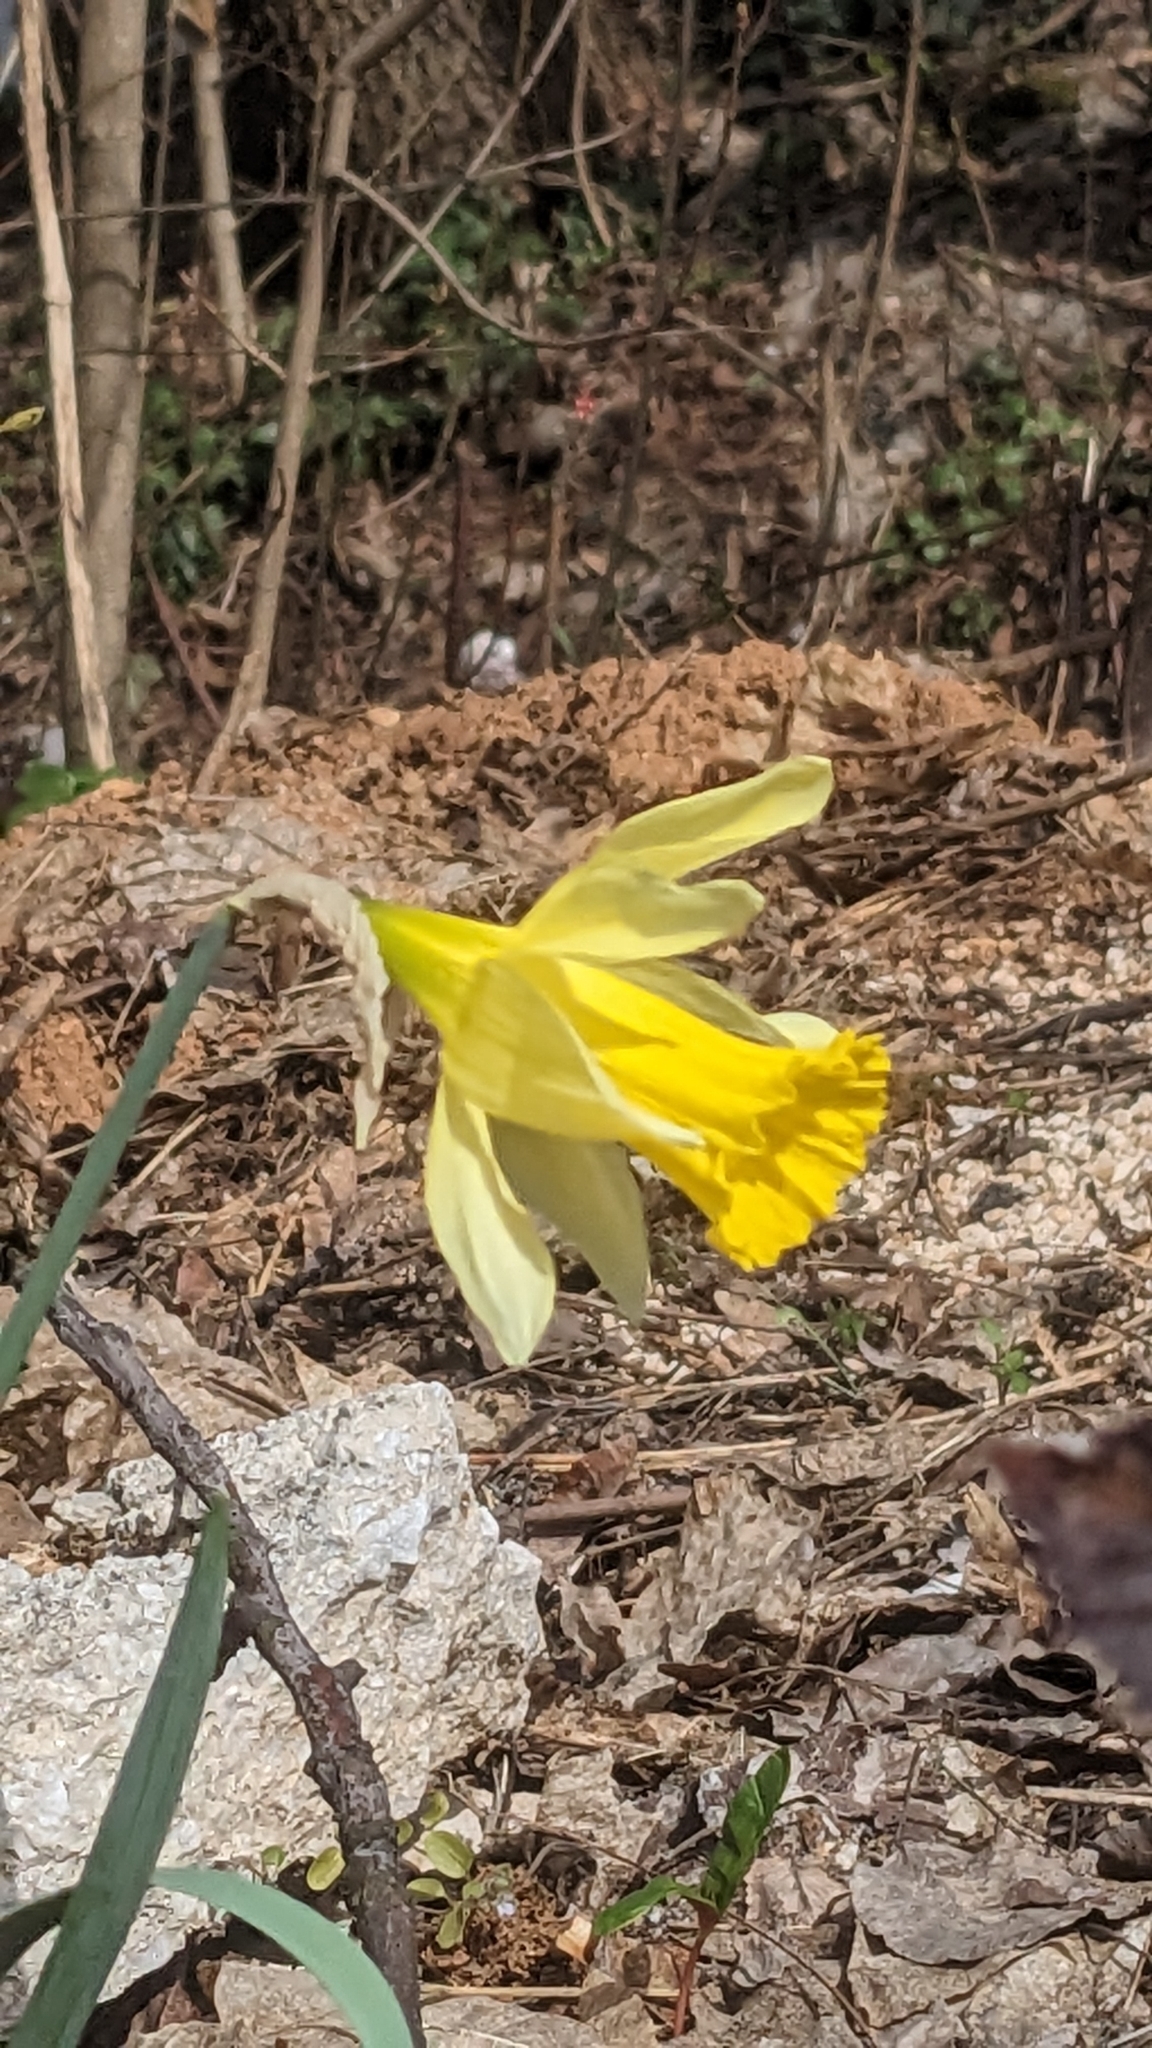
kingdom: Plantae
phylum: Tracheophyta
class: Liliopsida
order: Asparagales
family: Amaryllidaceae
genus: Narcissus
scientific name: Narcissus pseudonarcissus
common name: Daffodil
